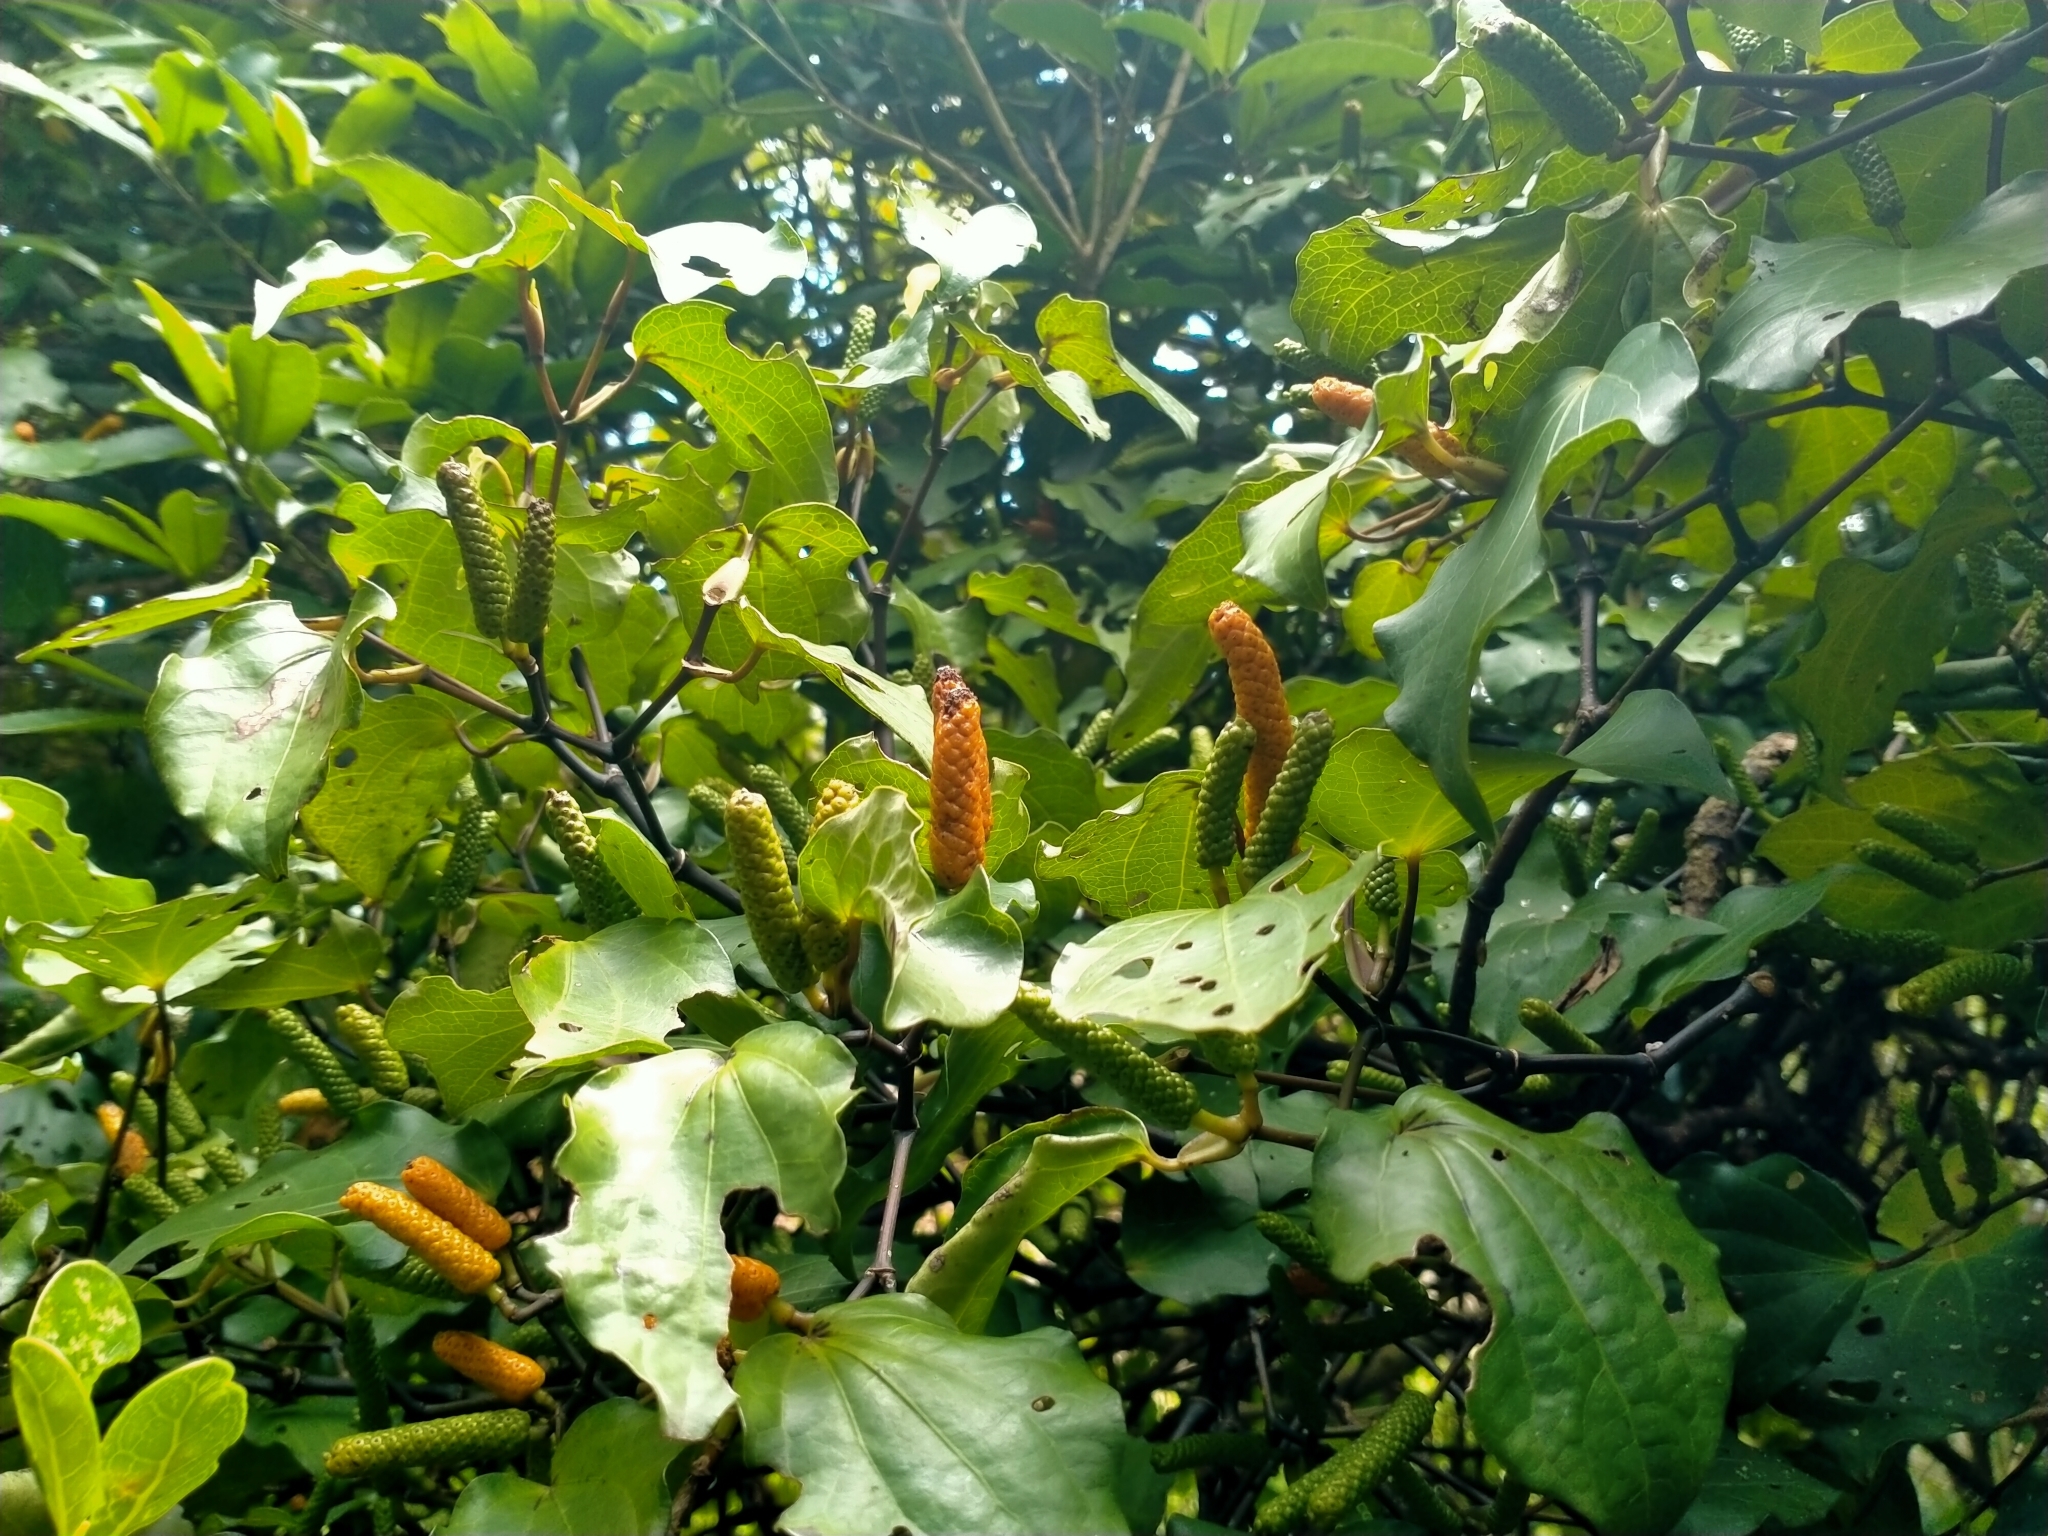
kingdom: Plantae
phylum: Tracheophyta
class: Magnoliopsida
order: Piperales
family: Piperaceae
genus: Macropiper
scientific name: Macropiper excelsum
